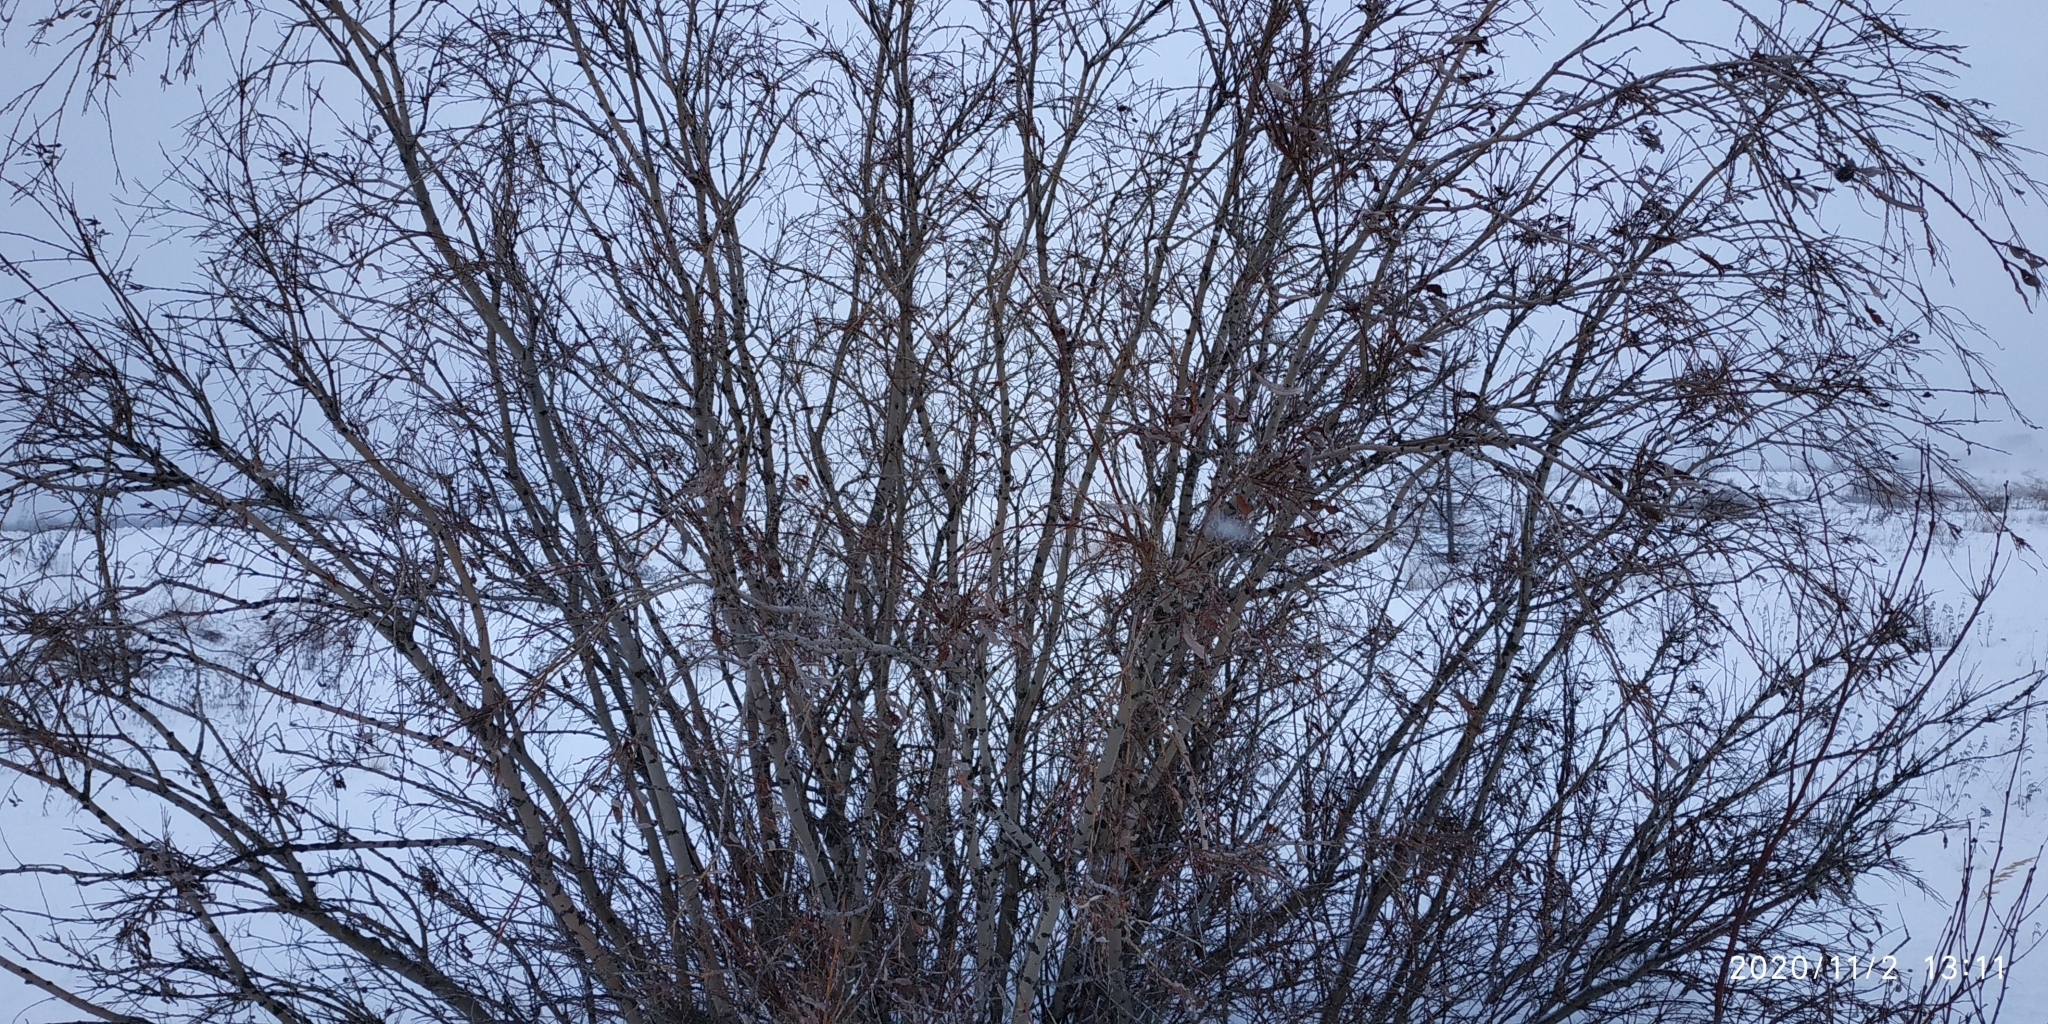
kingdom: Plantae
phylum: Tracheophyta
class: Magnoliopsida
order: Malpighiales
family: Salicaceae
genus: Salix
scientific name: Salix gmelinii
